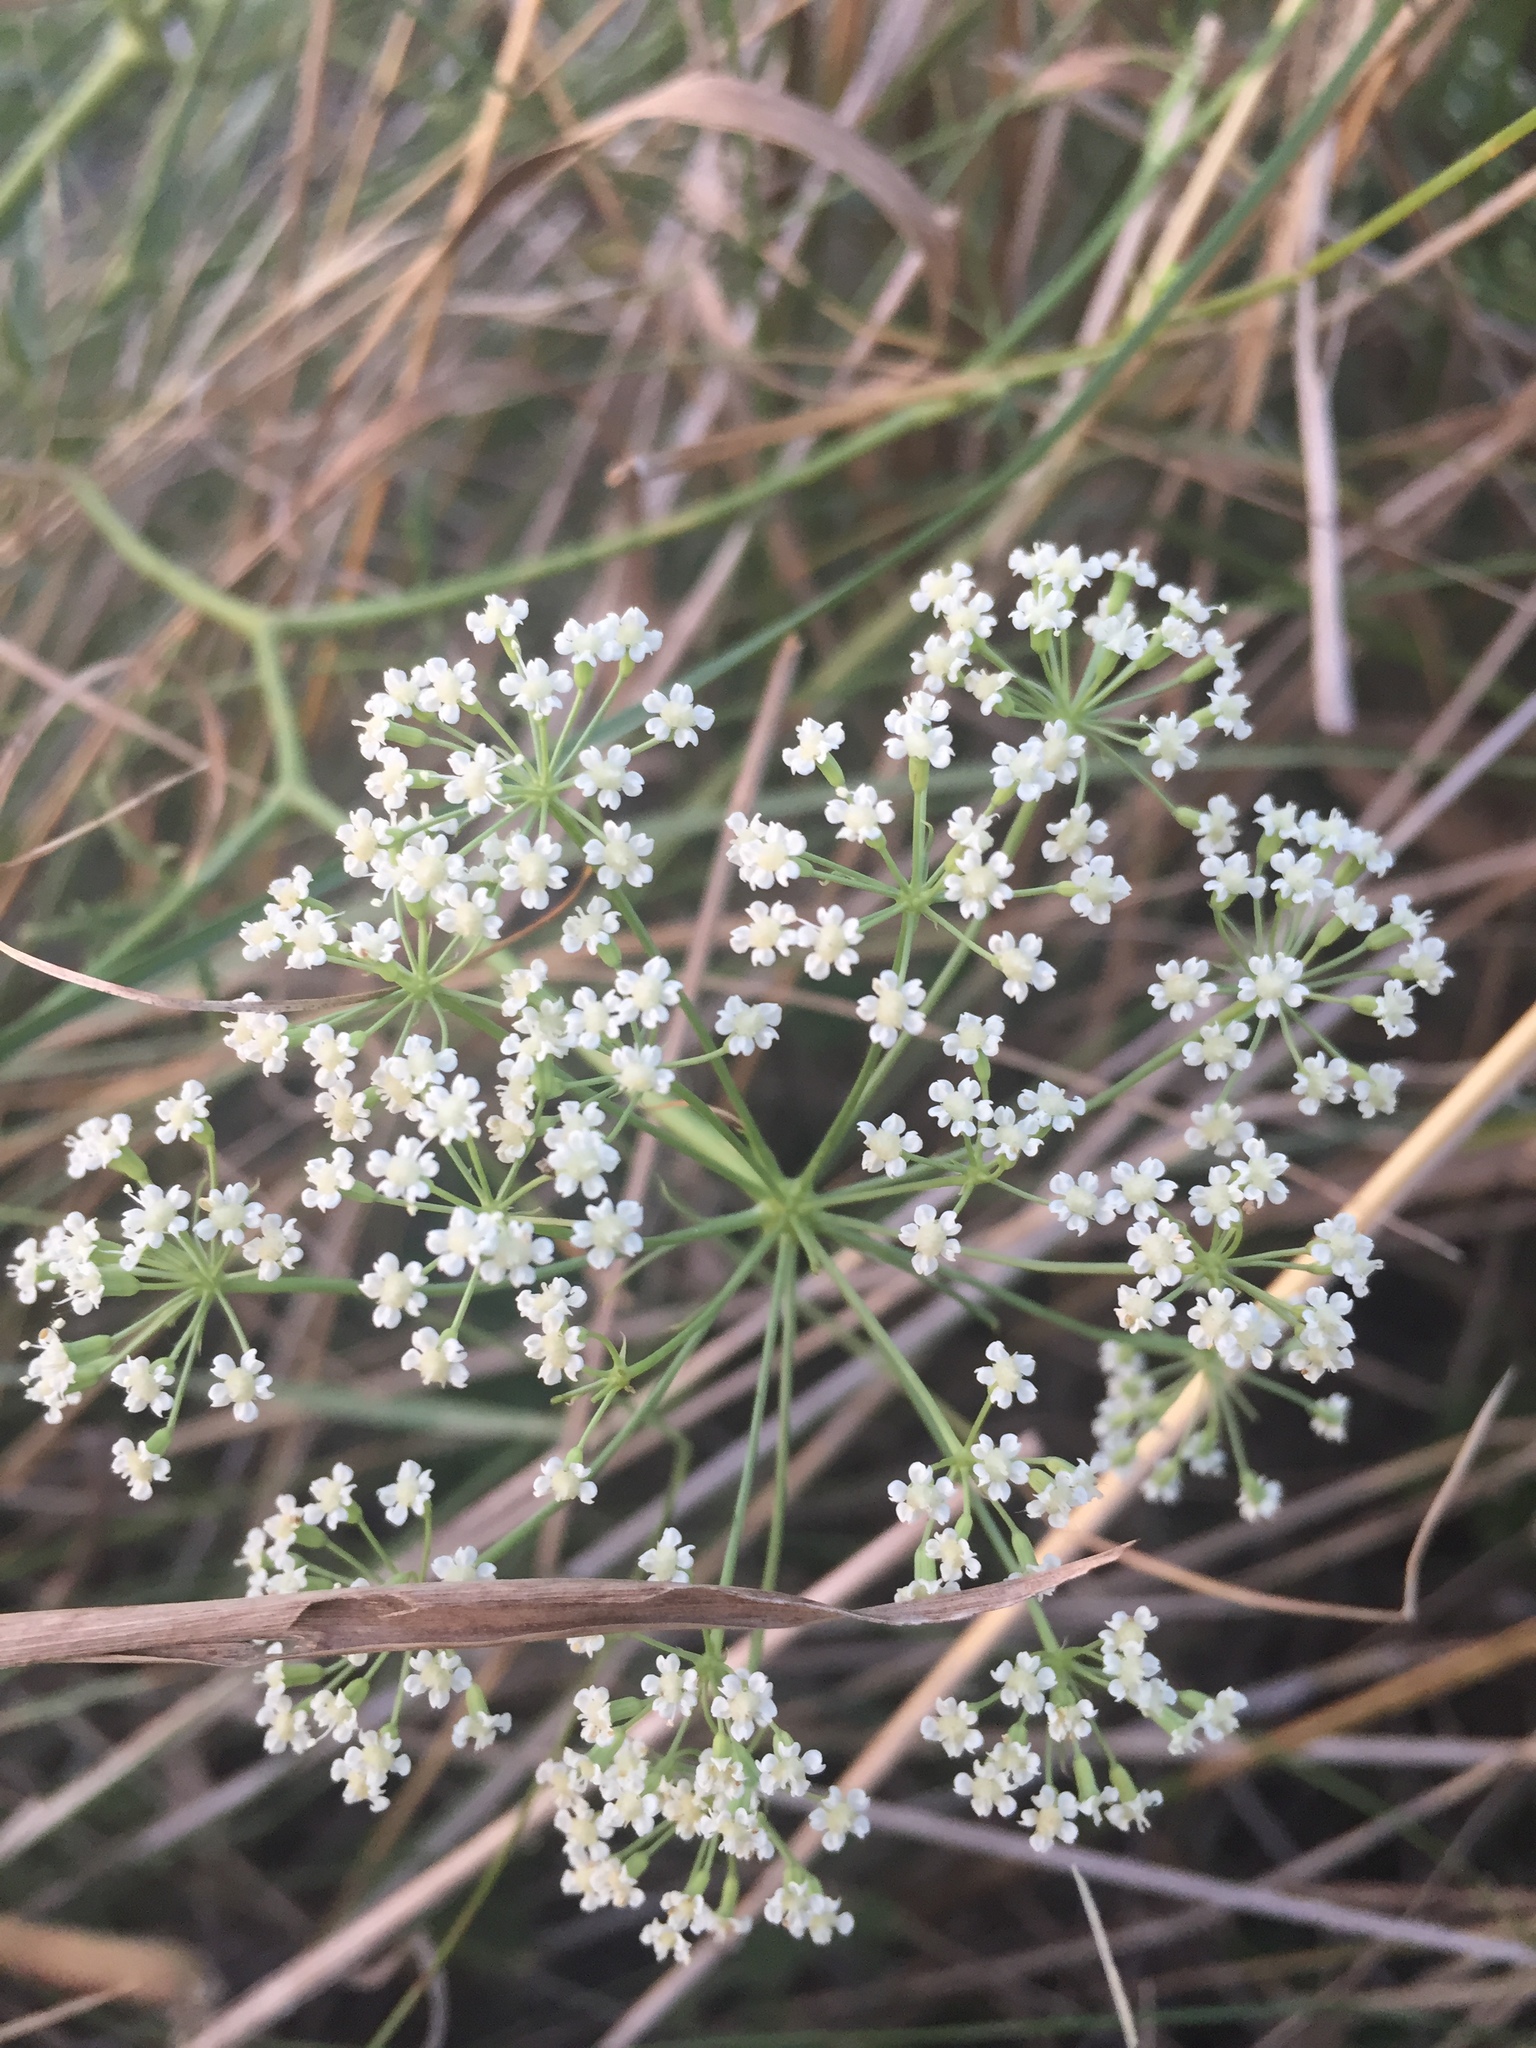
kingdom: Plantae
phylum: Tracheophyta
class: Magnoliopsida
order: Apiales
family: Apiaceae
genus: Falcaria
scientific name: Falcaria vulgaris
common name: Longleaf
